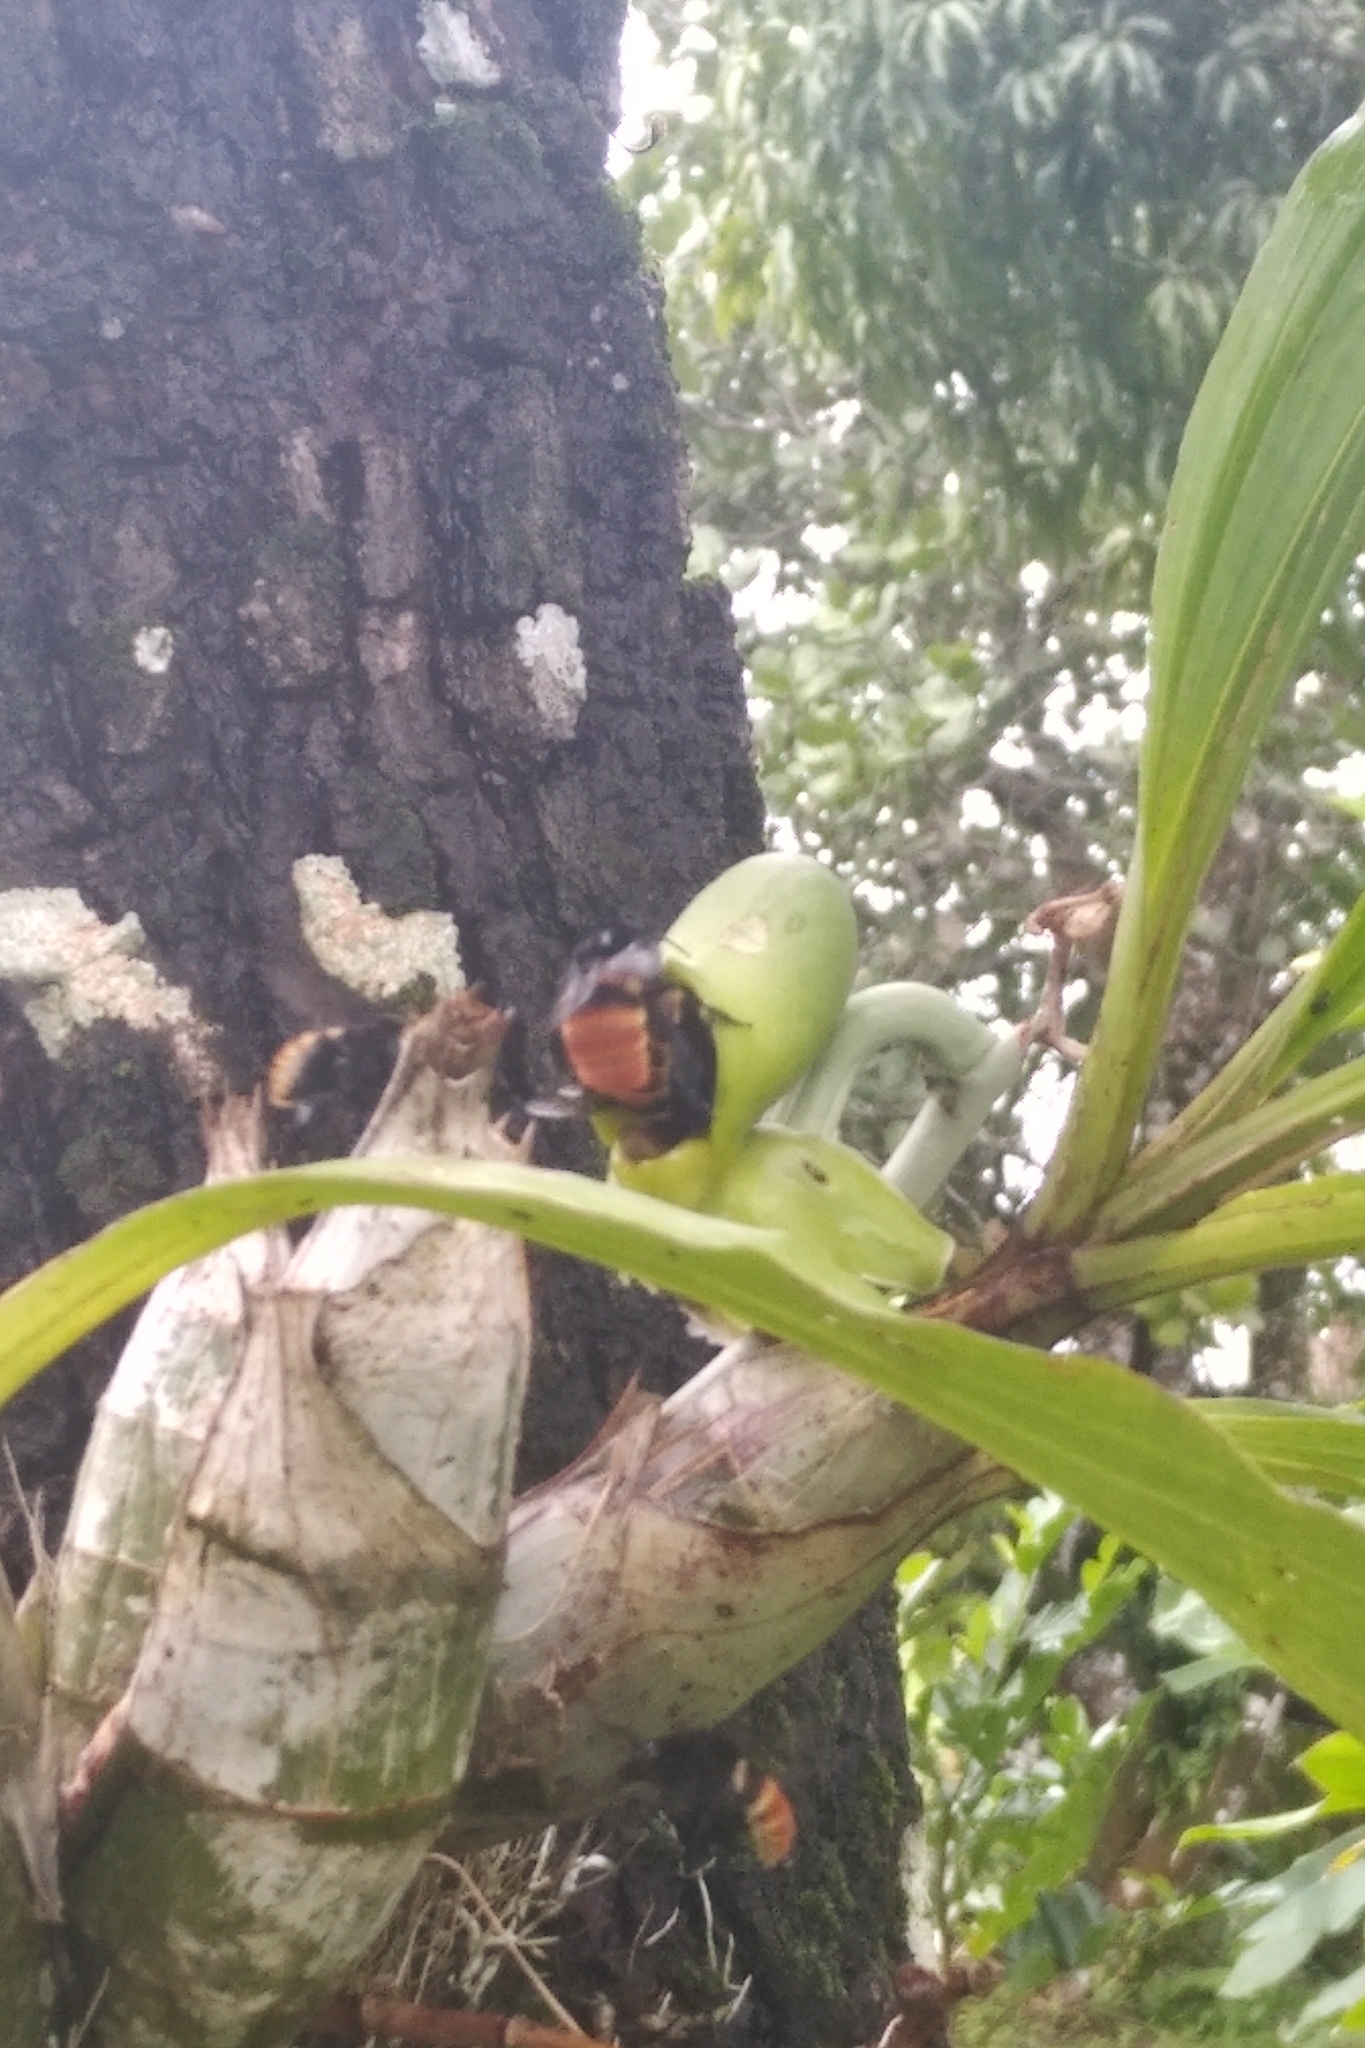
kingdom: Plantae
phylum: Tracheophyta
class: Liliopsida
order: Asparagales
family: Orchidaceae
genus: Catasetum
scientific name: Catasetum discolor
